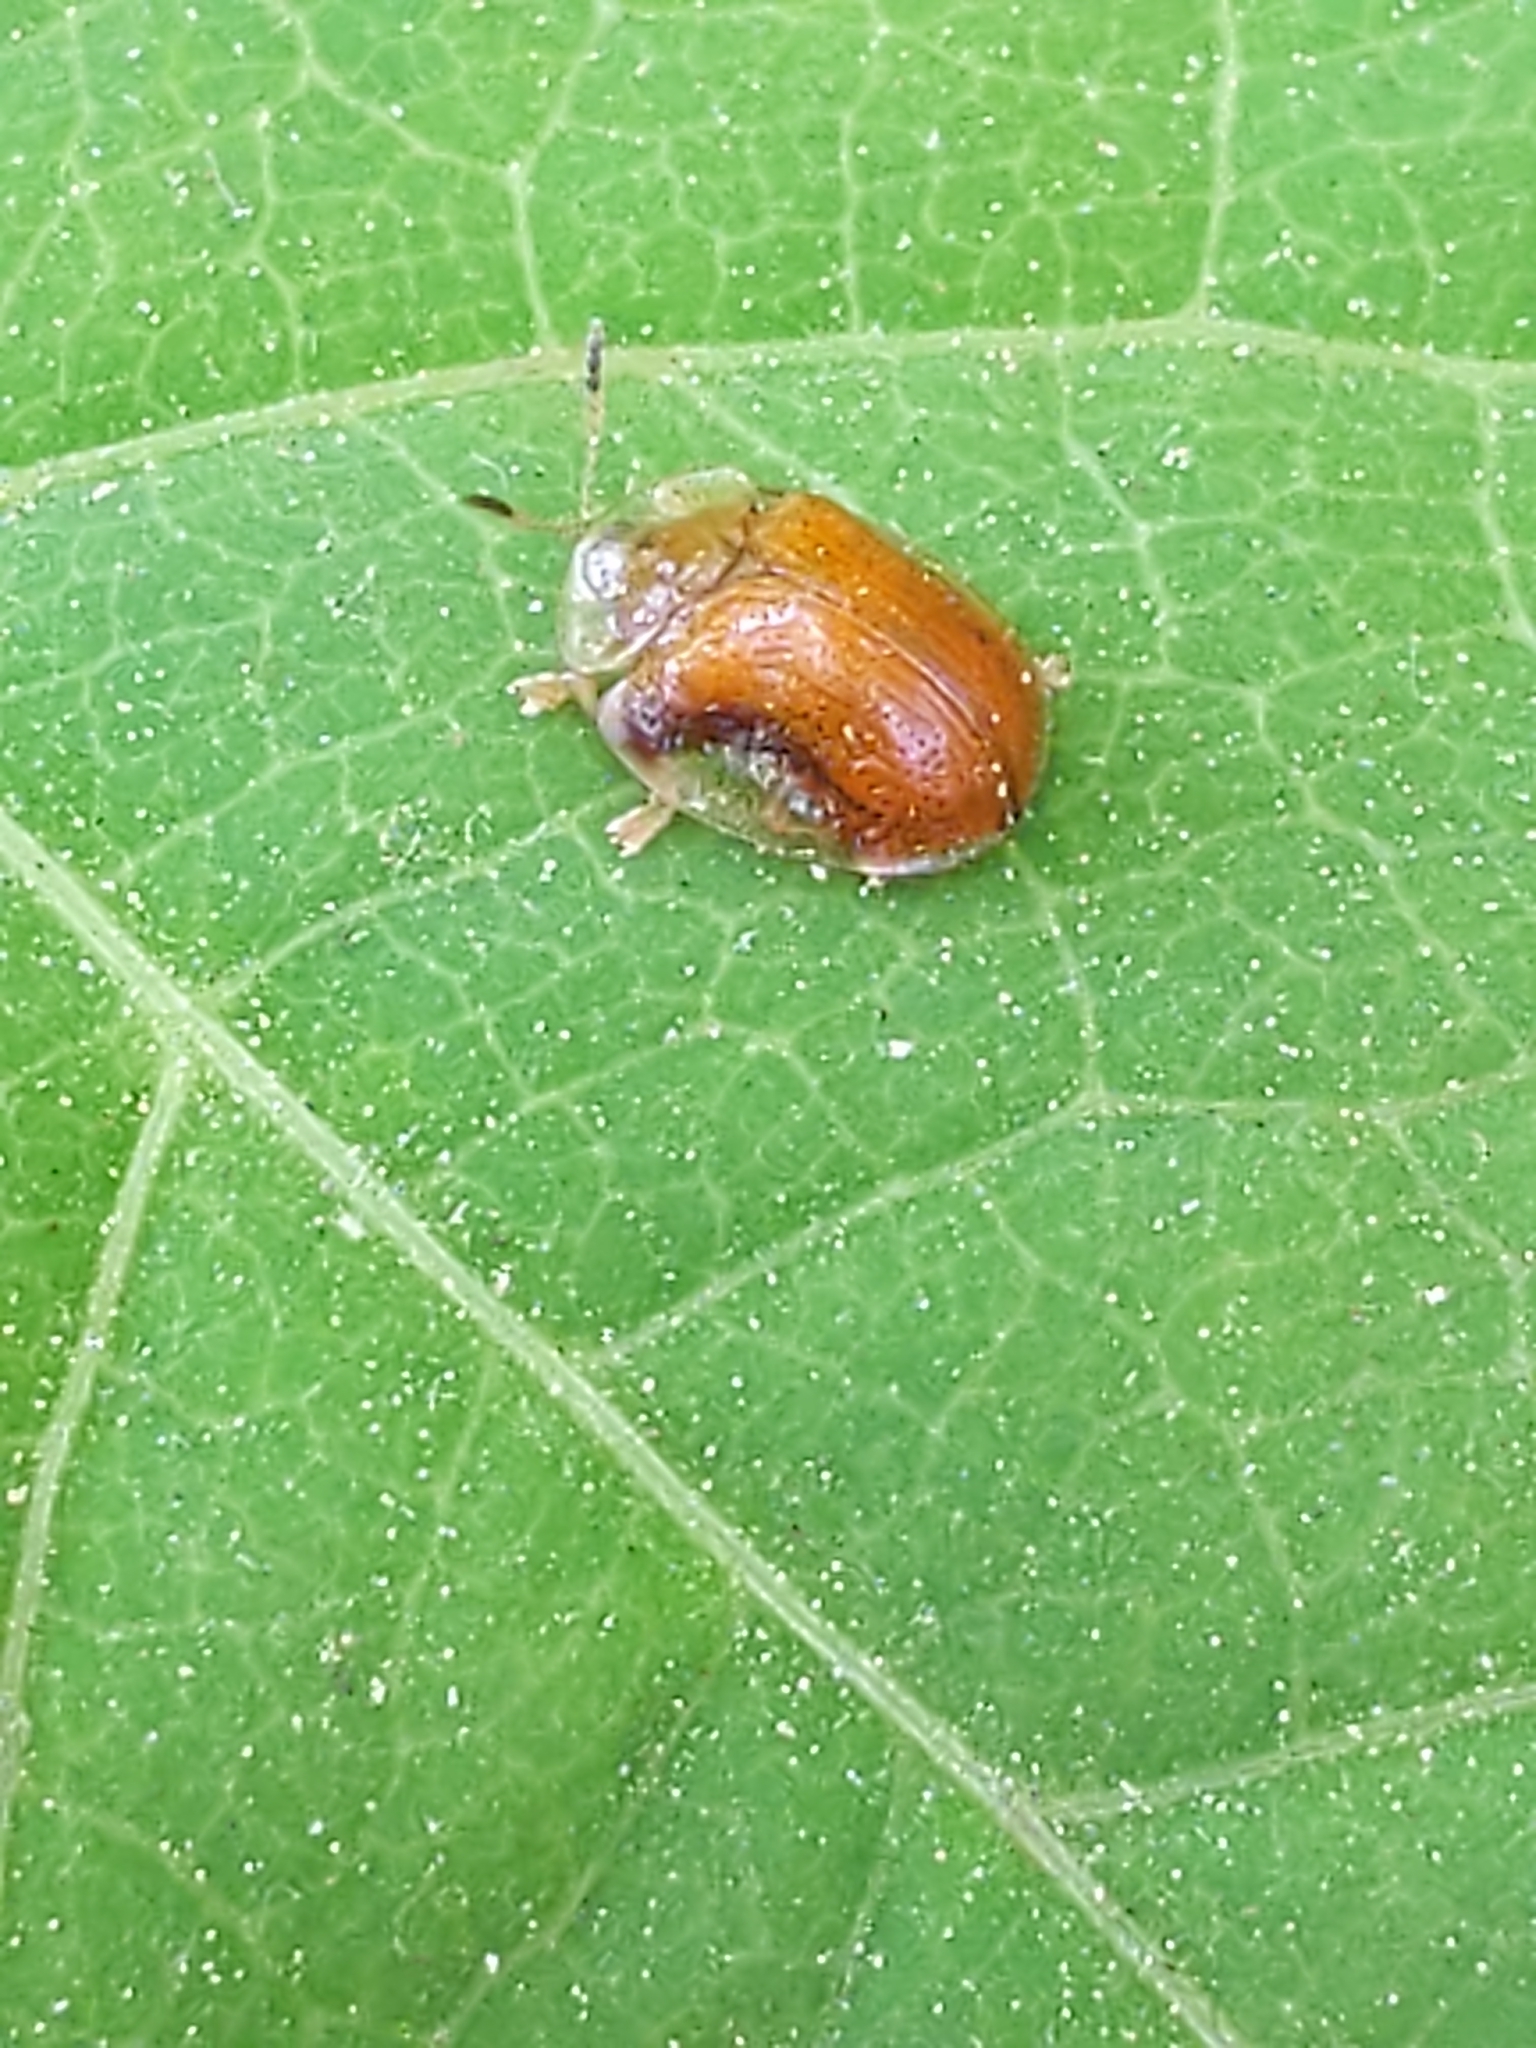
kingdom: Animalia
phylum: Arthropoda
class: Insecta
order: Coleoptera
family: Chrysomelidae
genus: Charidotella
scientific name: Charidotella purpurata
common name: Small orange tortoise beetle
